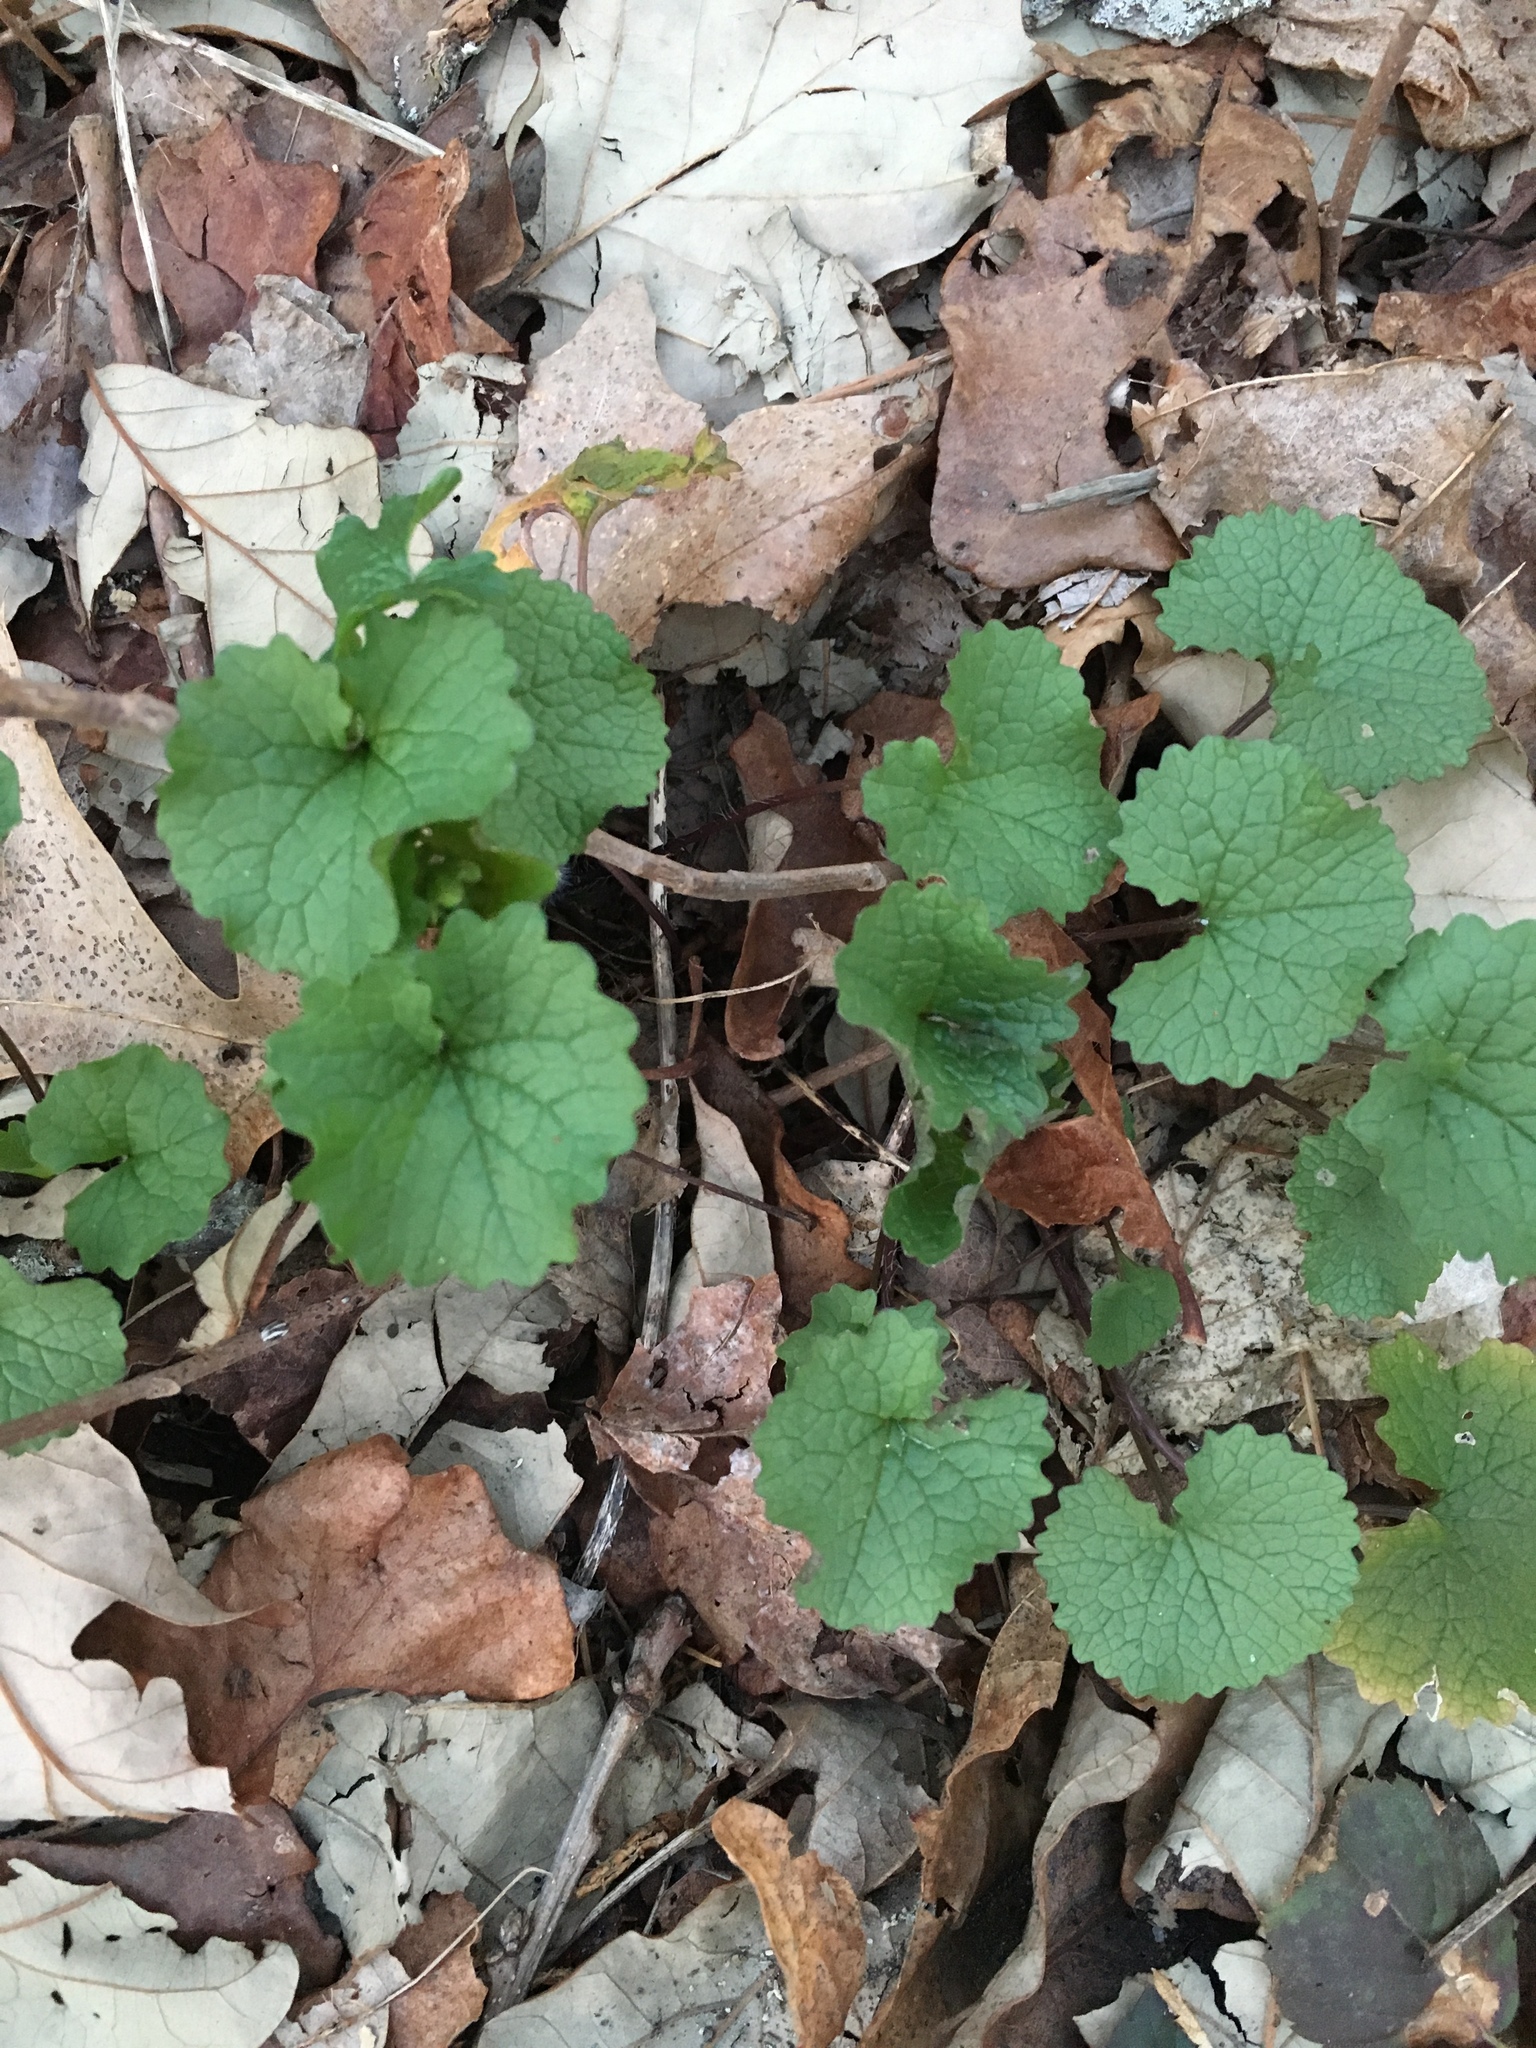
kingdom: Plantae
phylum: Tracheophyta
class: Magnoliopsida
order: Brassicales
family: Brassicaceae
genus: Alliaria
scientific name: Alliaria petiolata
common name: Garlic mustard
